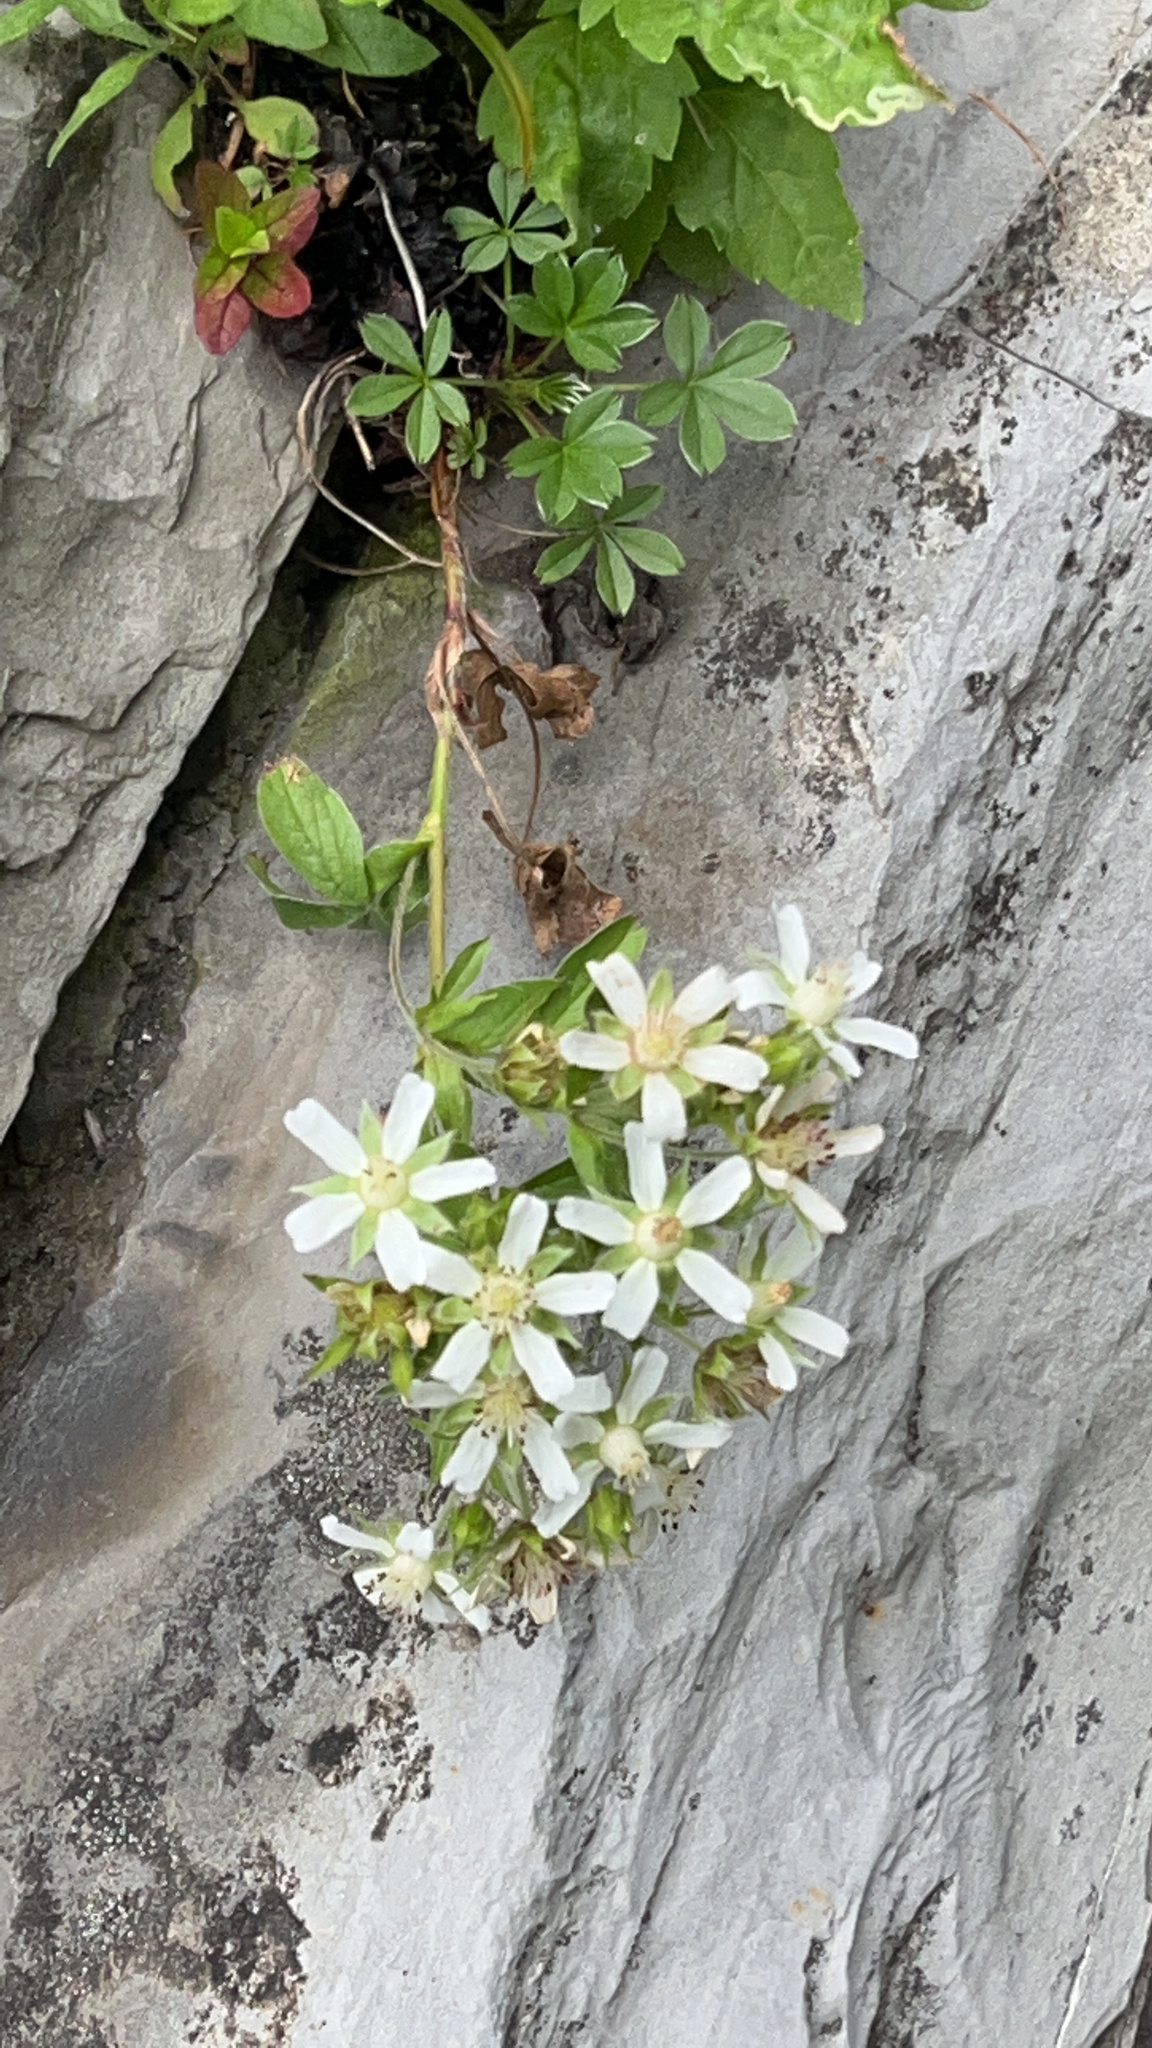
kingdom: Plantae
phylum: Tracheophyta
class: Magnoliopsida
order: Rosales
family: Rosaceae
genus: Potentilla
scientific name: Potentilla caulescens
